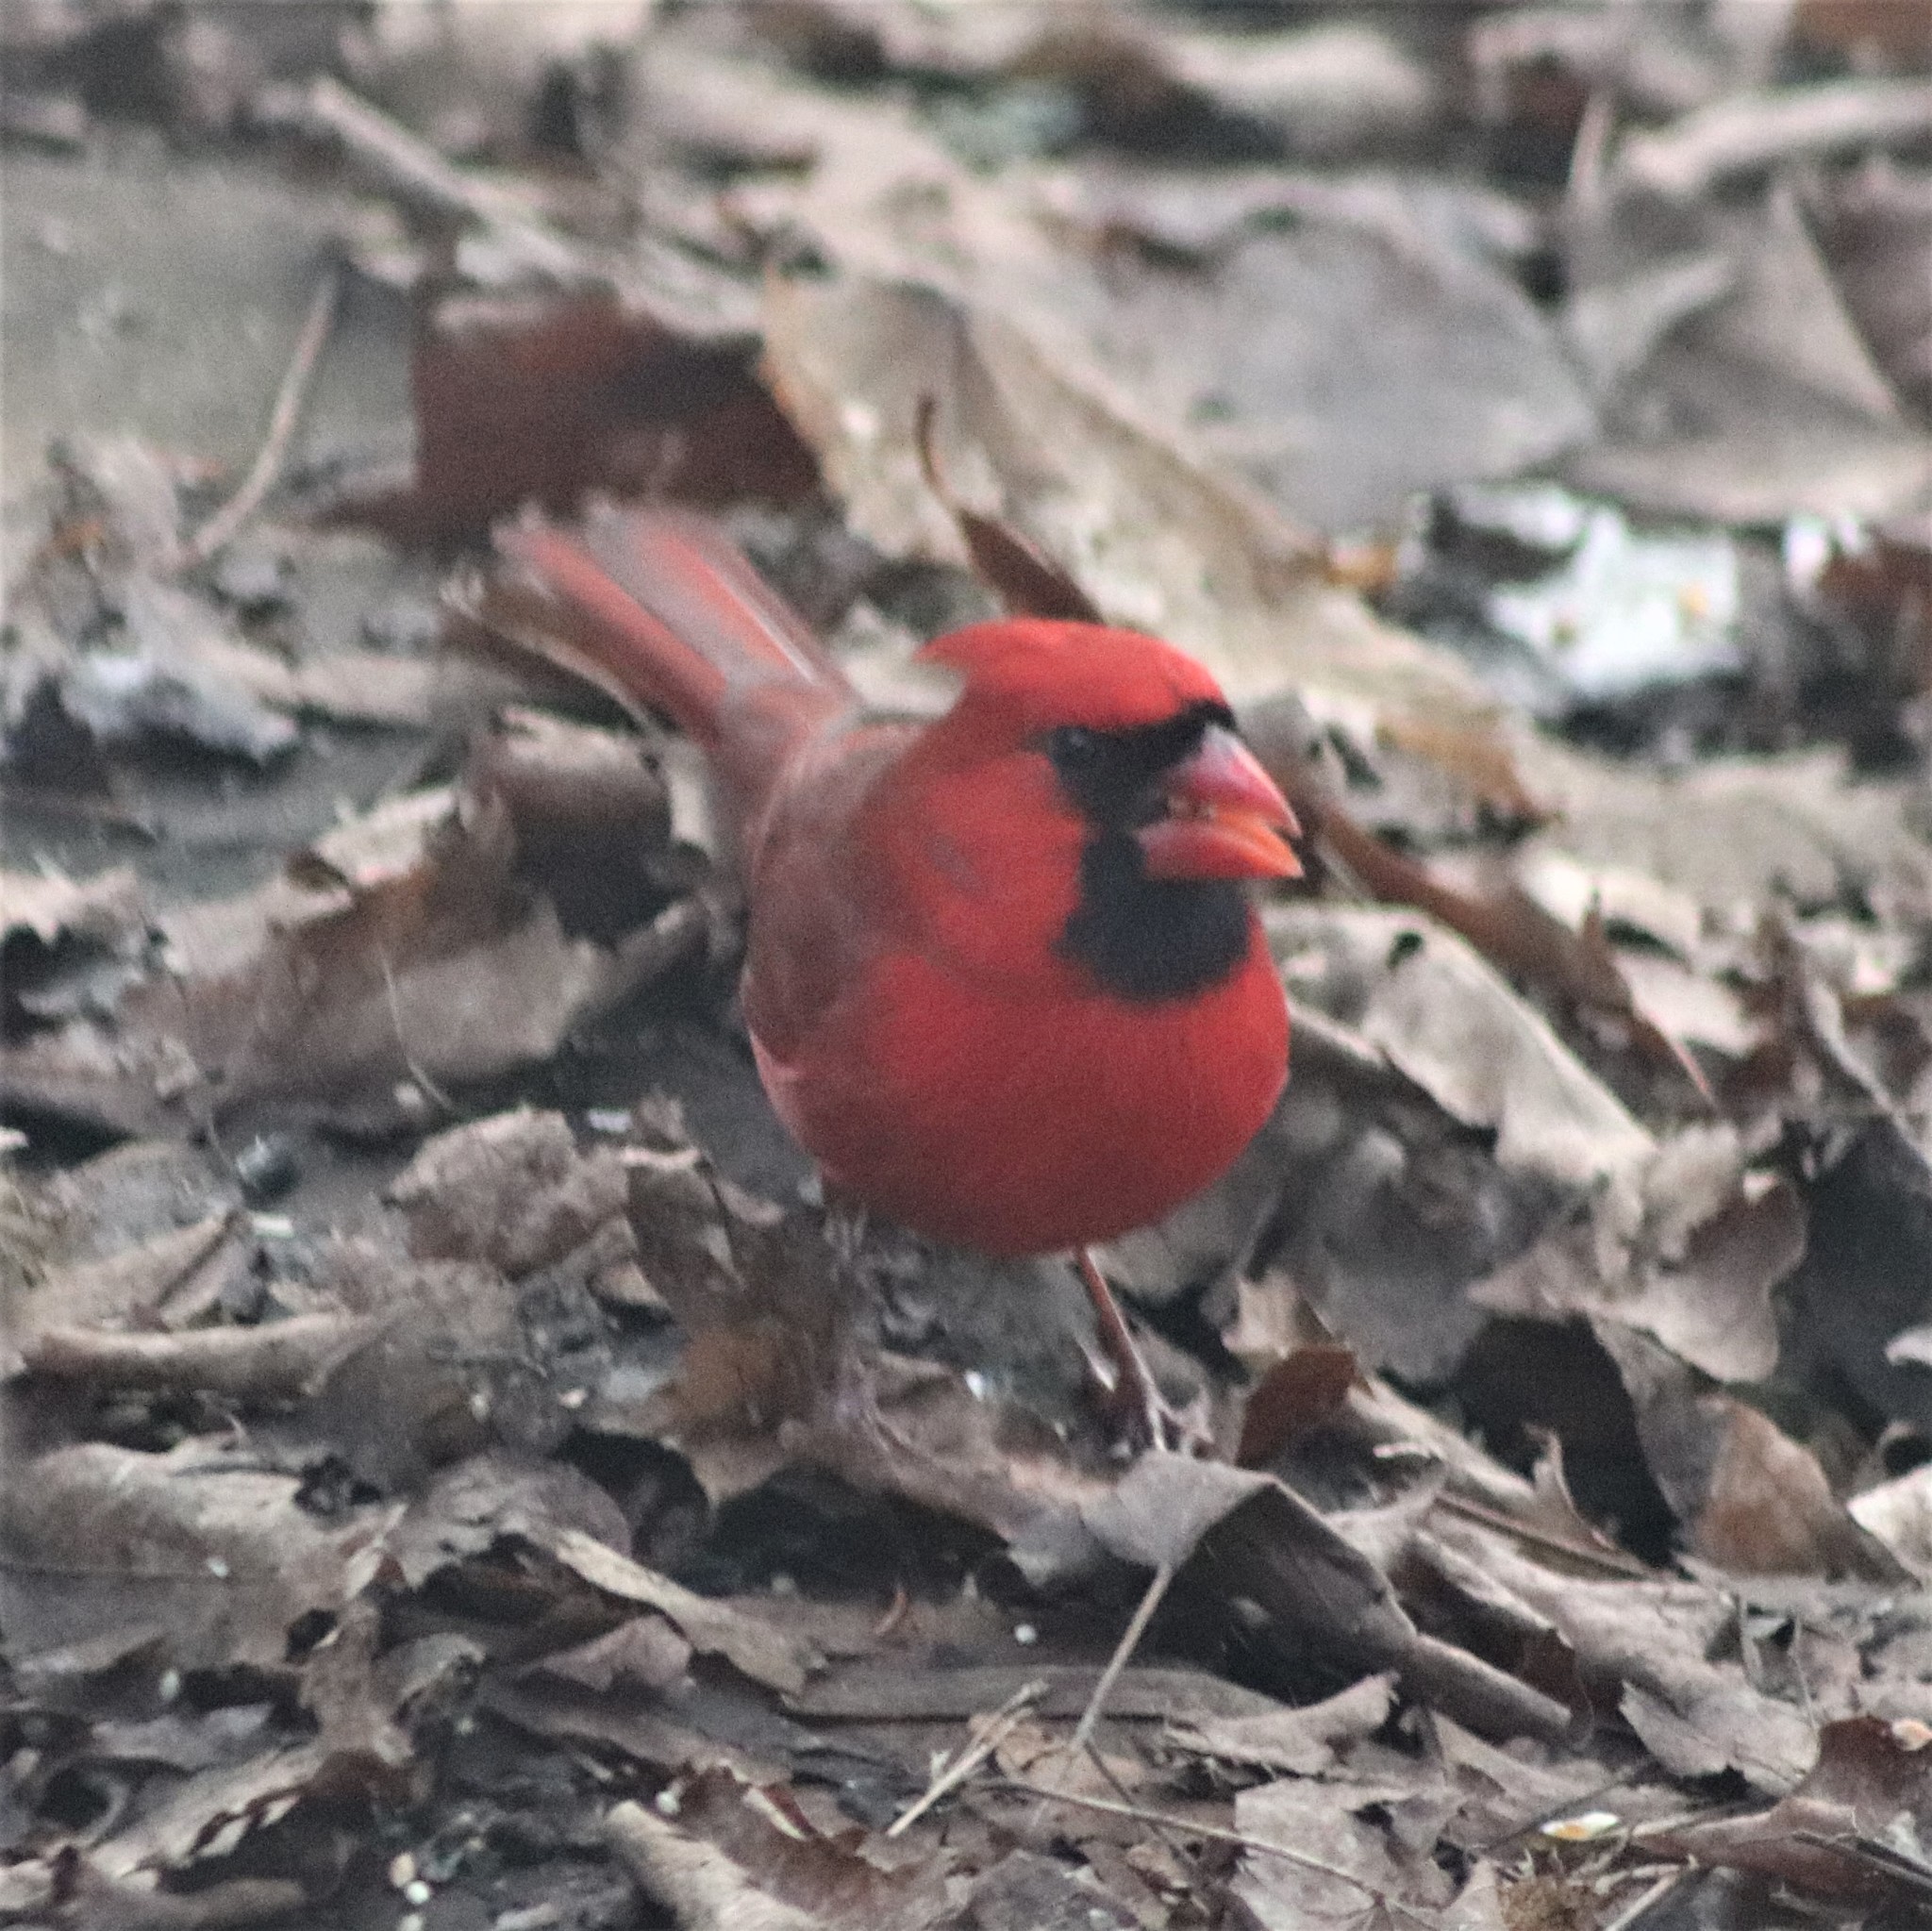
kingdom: Animalia
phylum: Chordata
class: Aves
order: Passeriformes
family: Cardinalidae
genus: Cardinalis
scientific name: Cardinalis cardinalis
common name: Northern cardinal
